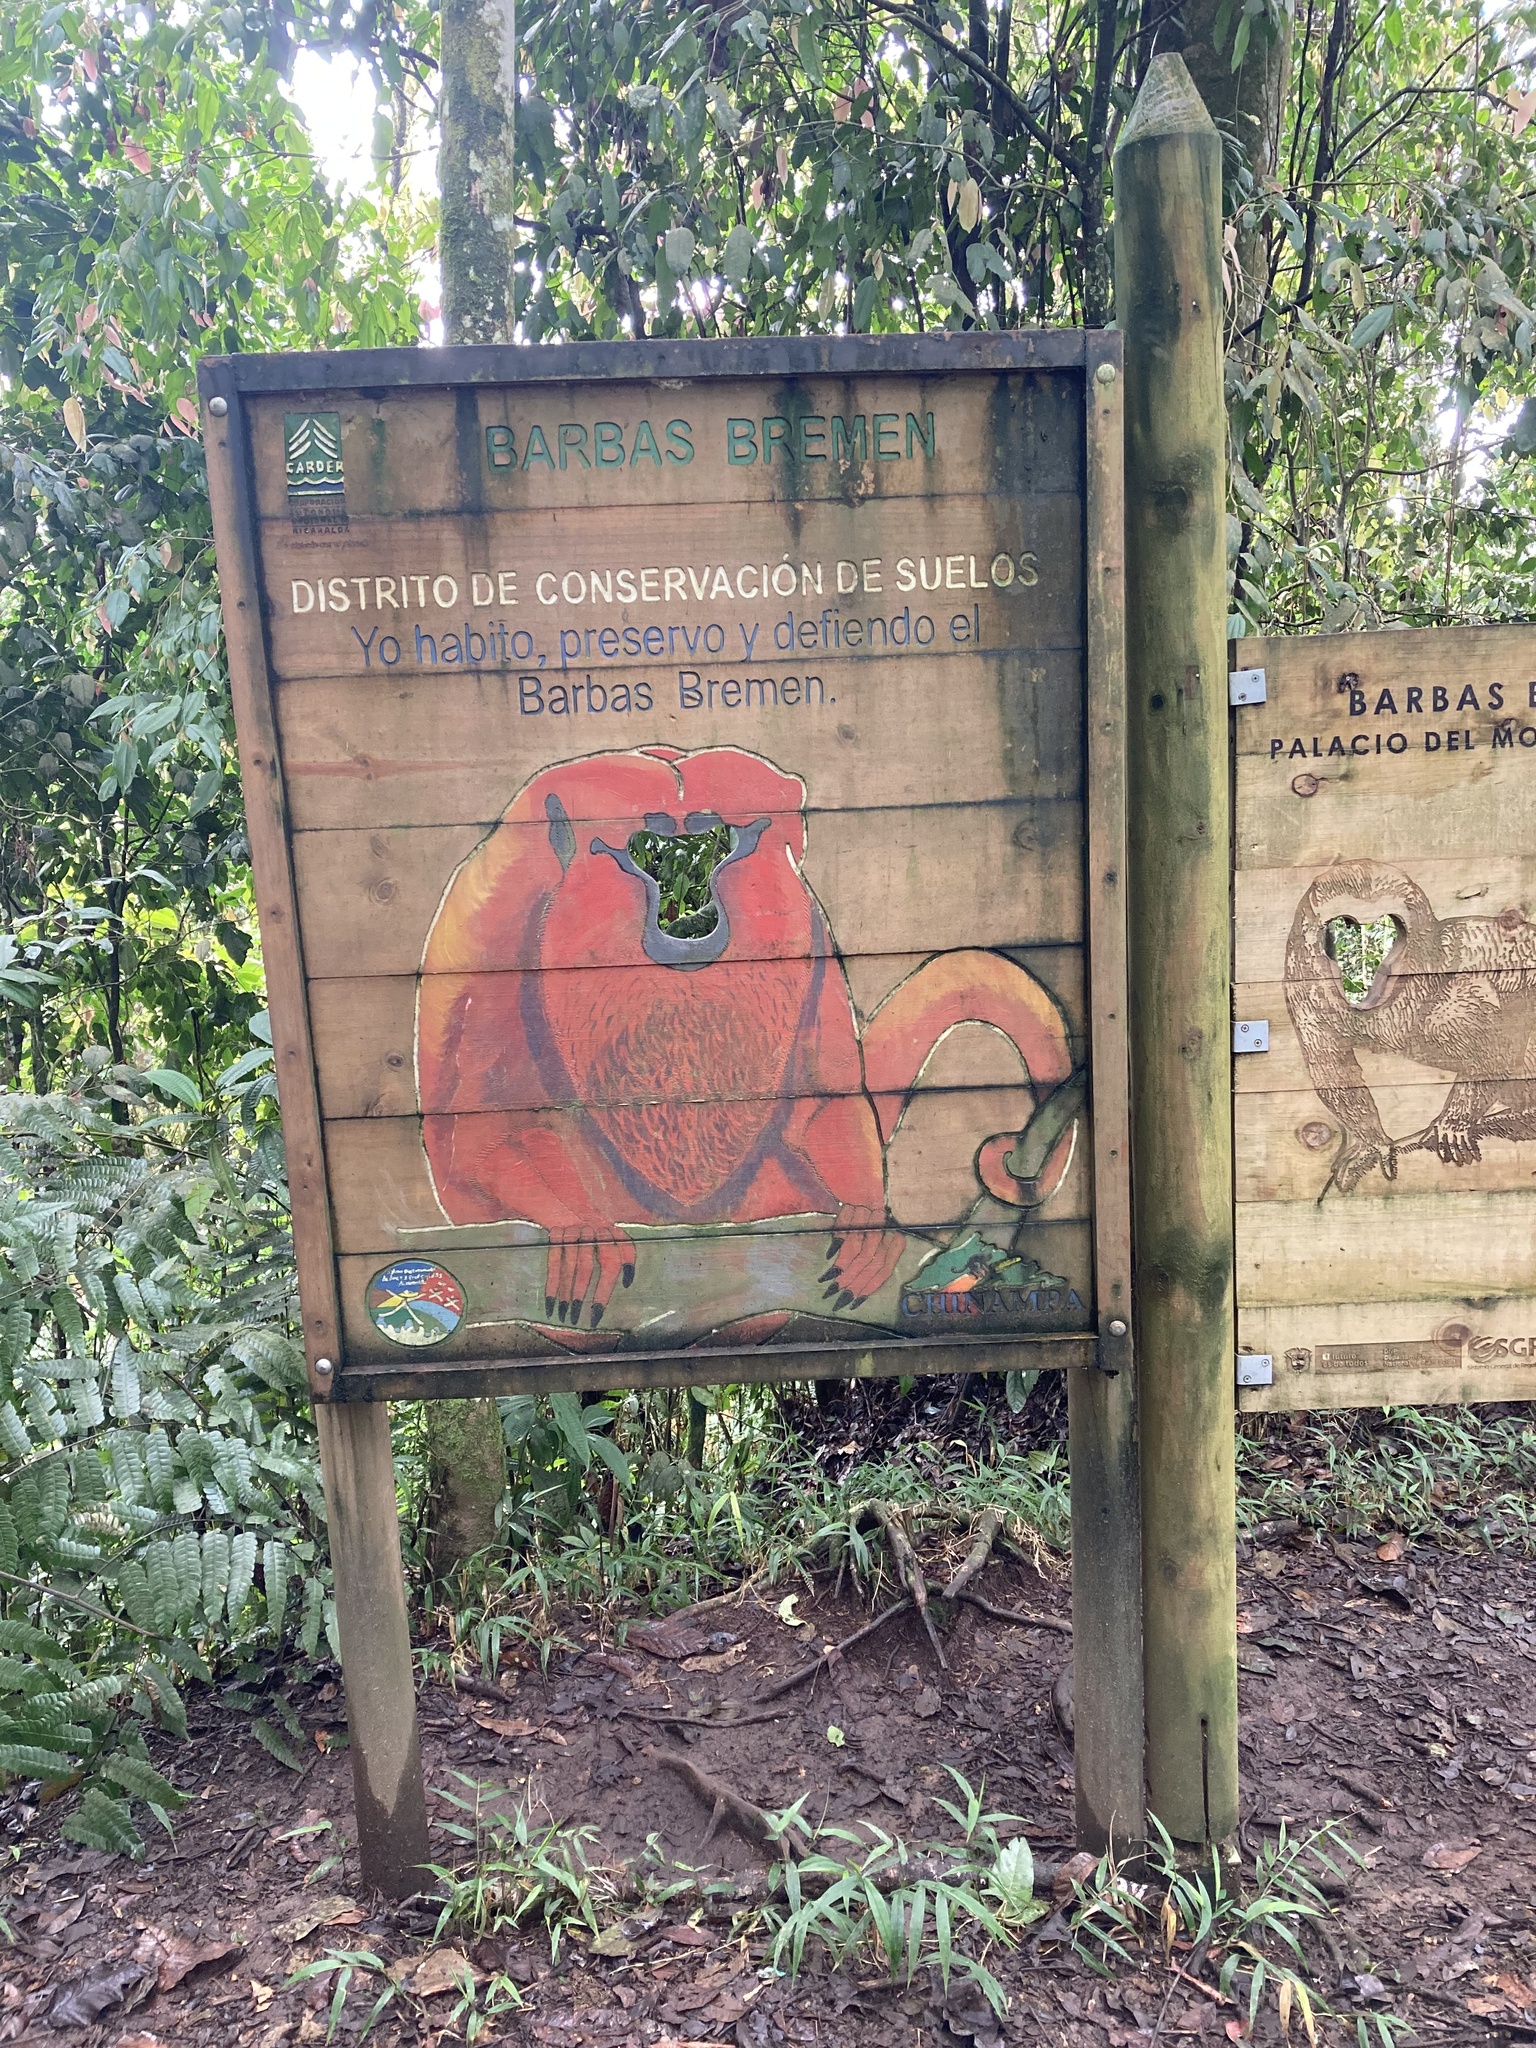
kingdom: Animalia
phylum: Chordata
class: Mammalia
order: Primates
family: Atelidae
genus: Alouatta
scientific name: Alouatta seniculus
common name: Venezuelan red howler
